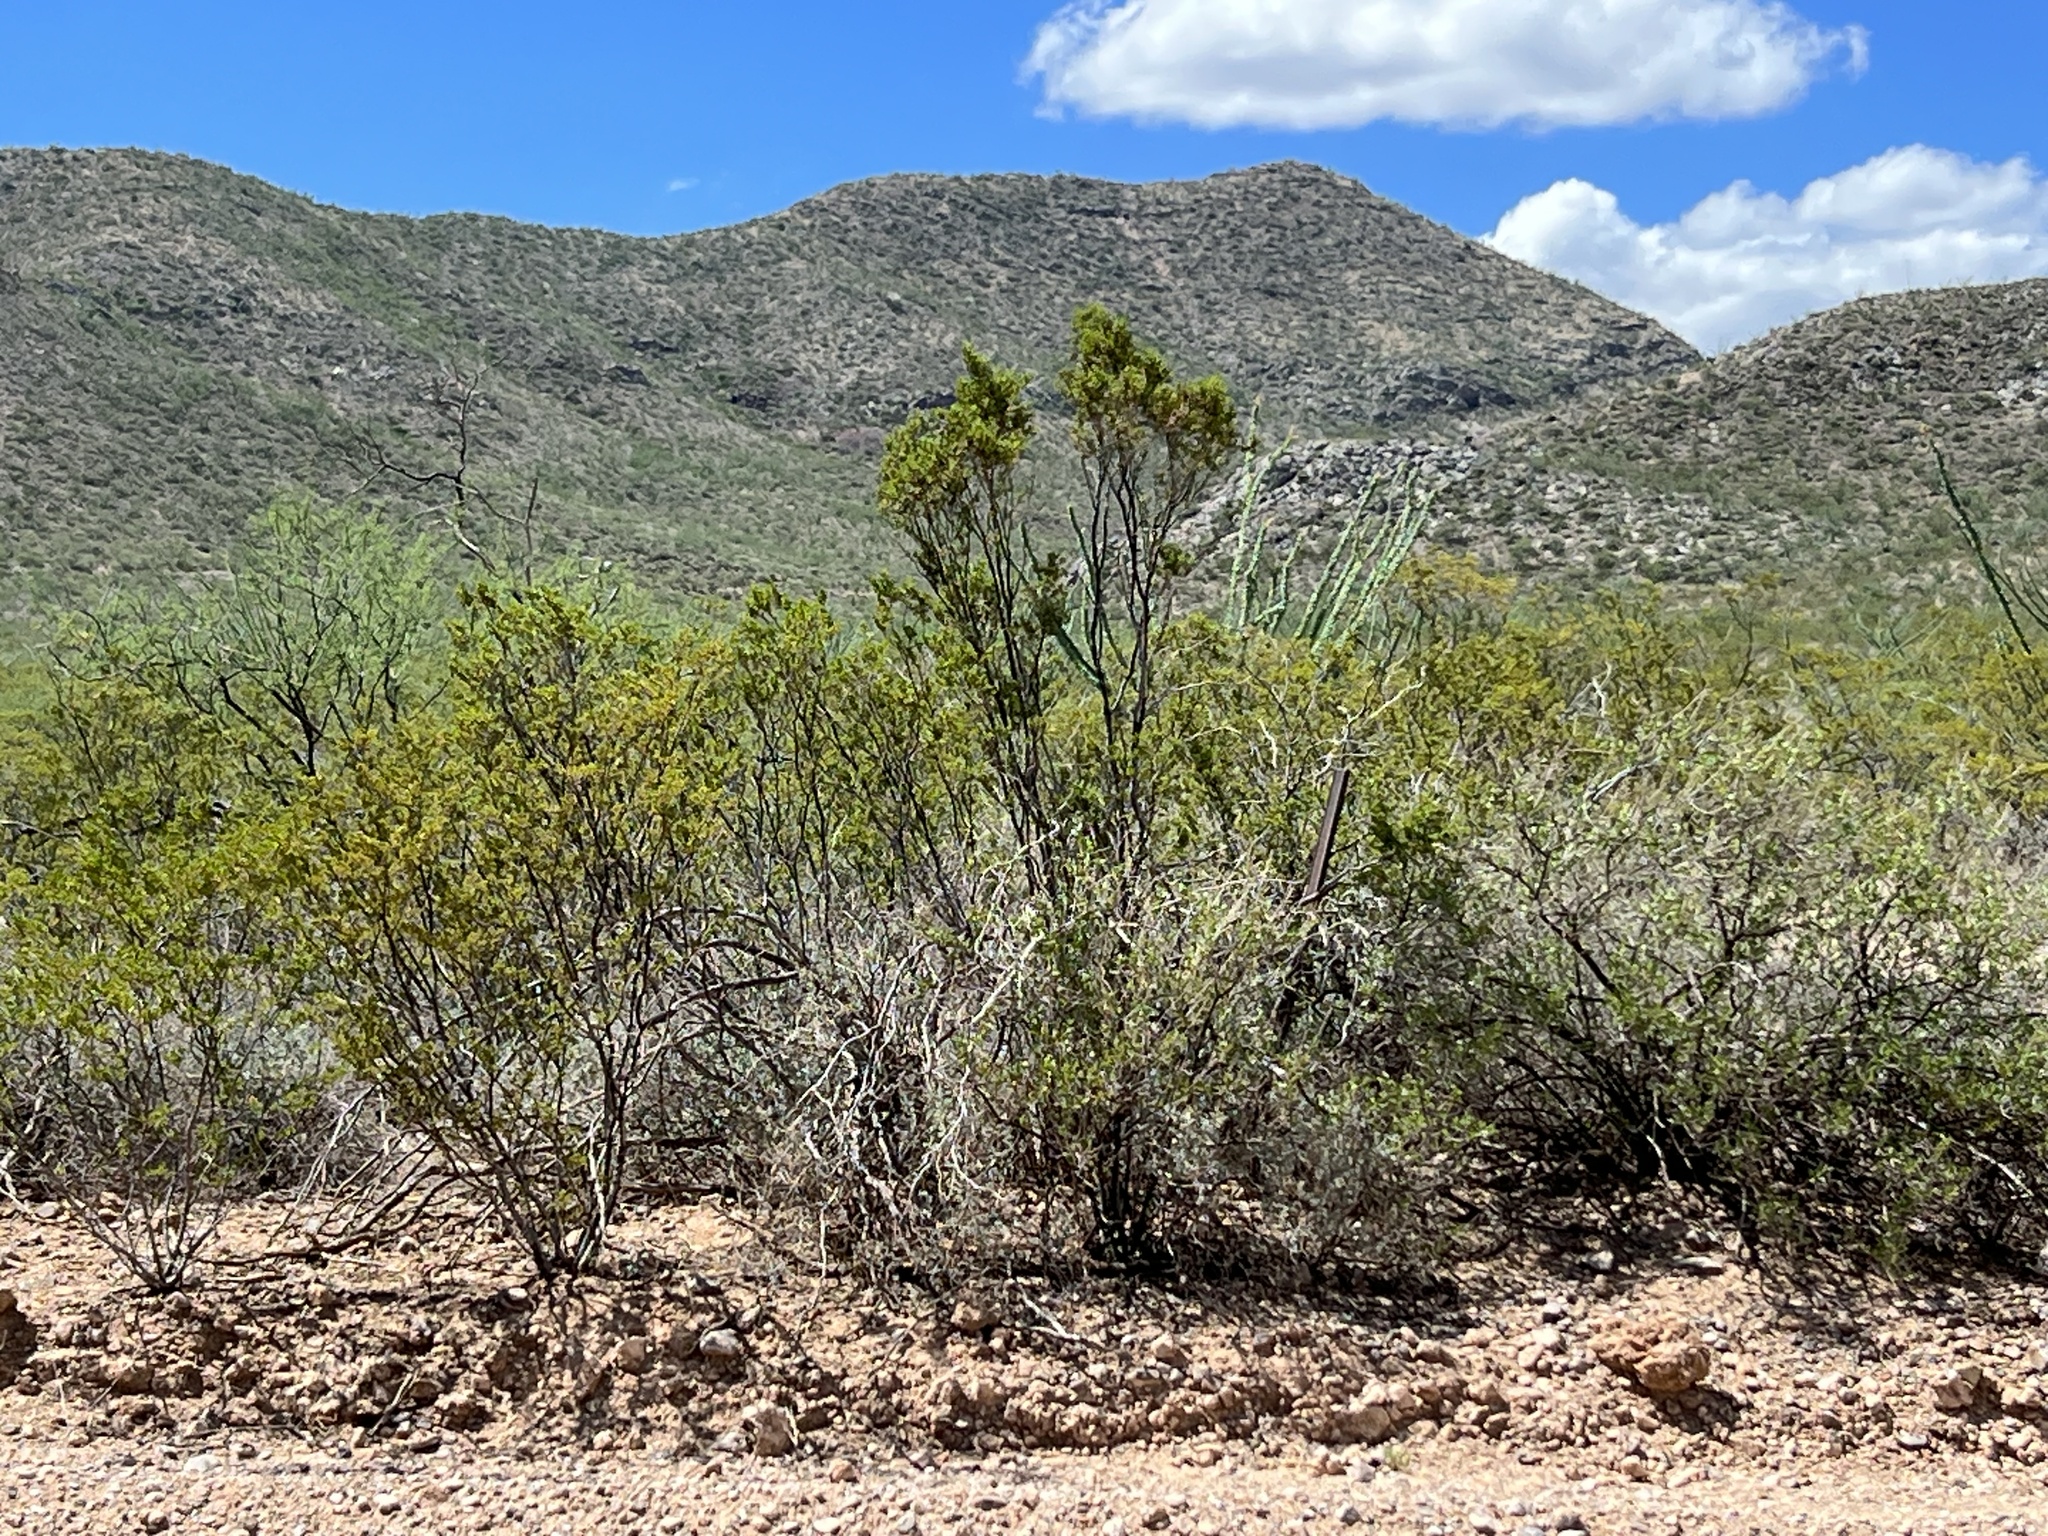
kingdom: Plantae
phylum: Tracheophyta
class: Magnoliopsida
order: Zygophyllales
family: Zygophyllaceae
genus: Larrea
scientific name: Larrea tridentata
